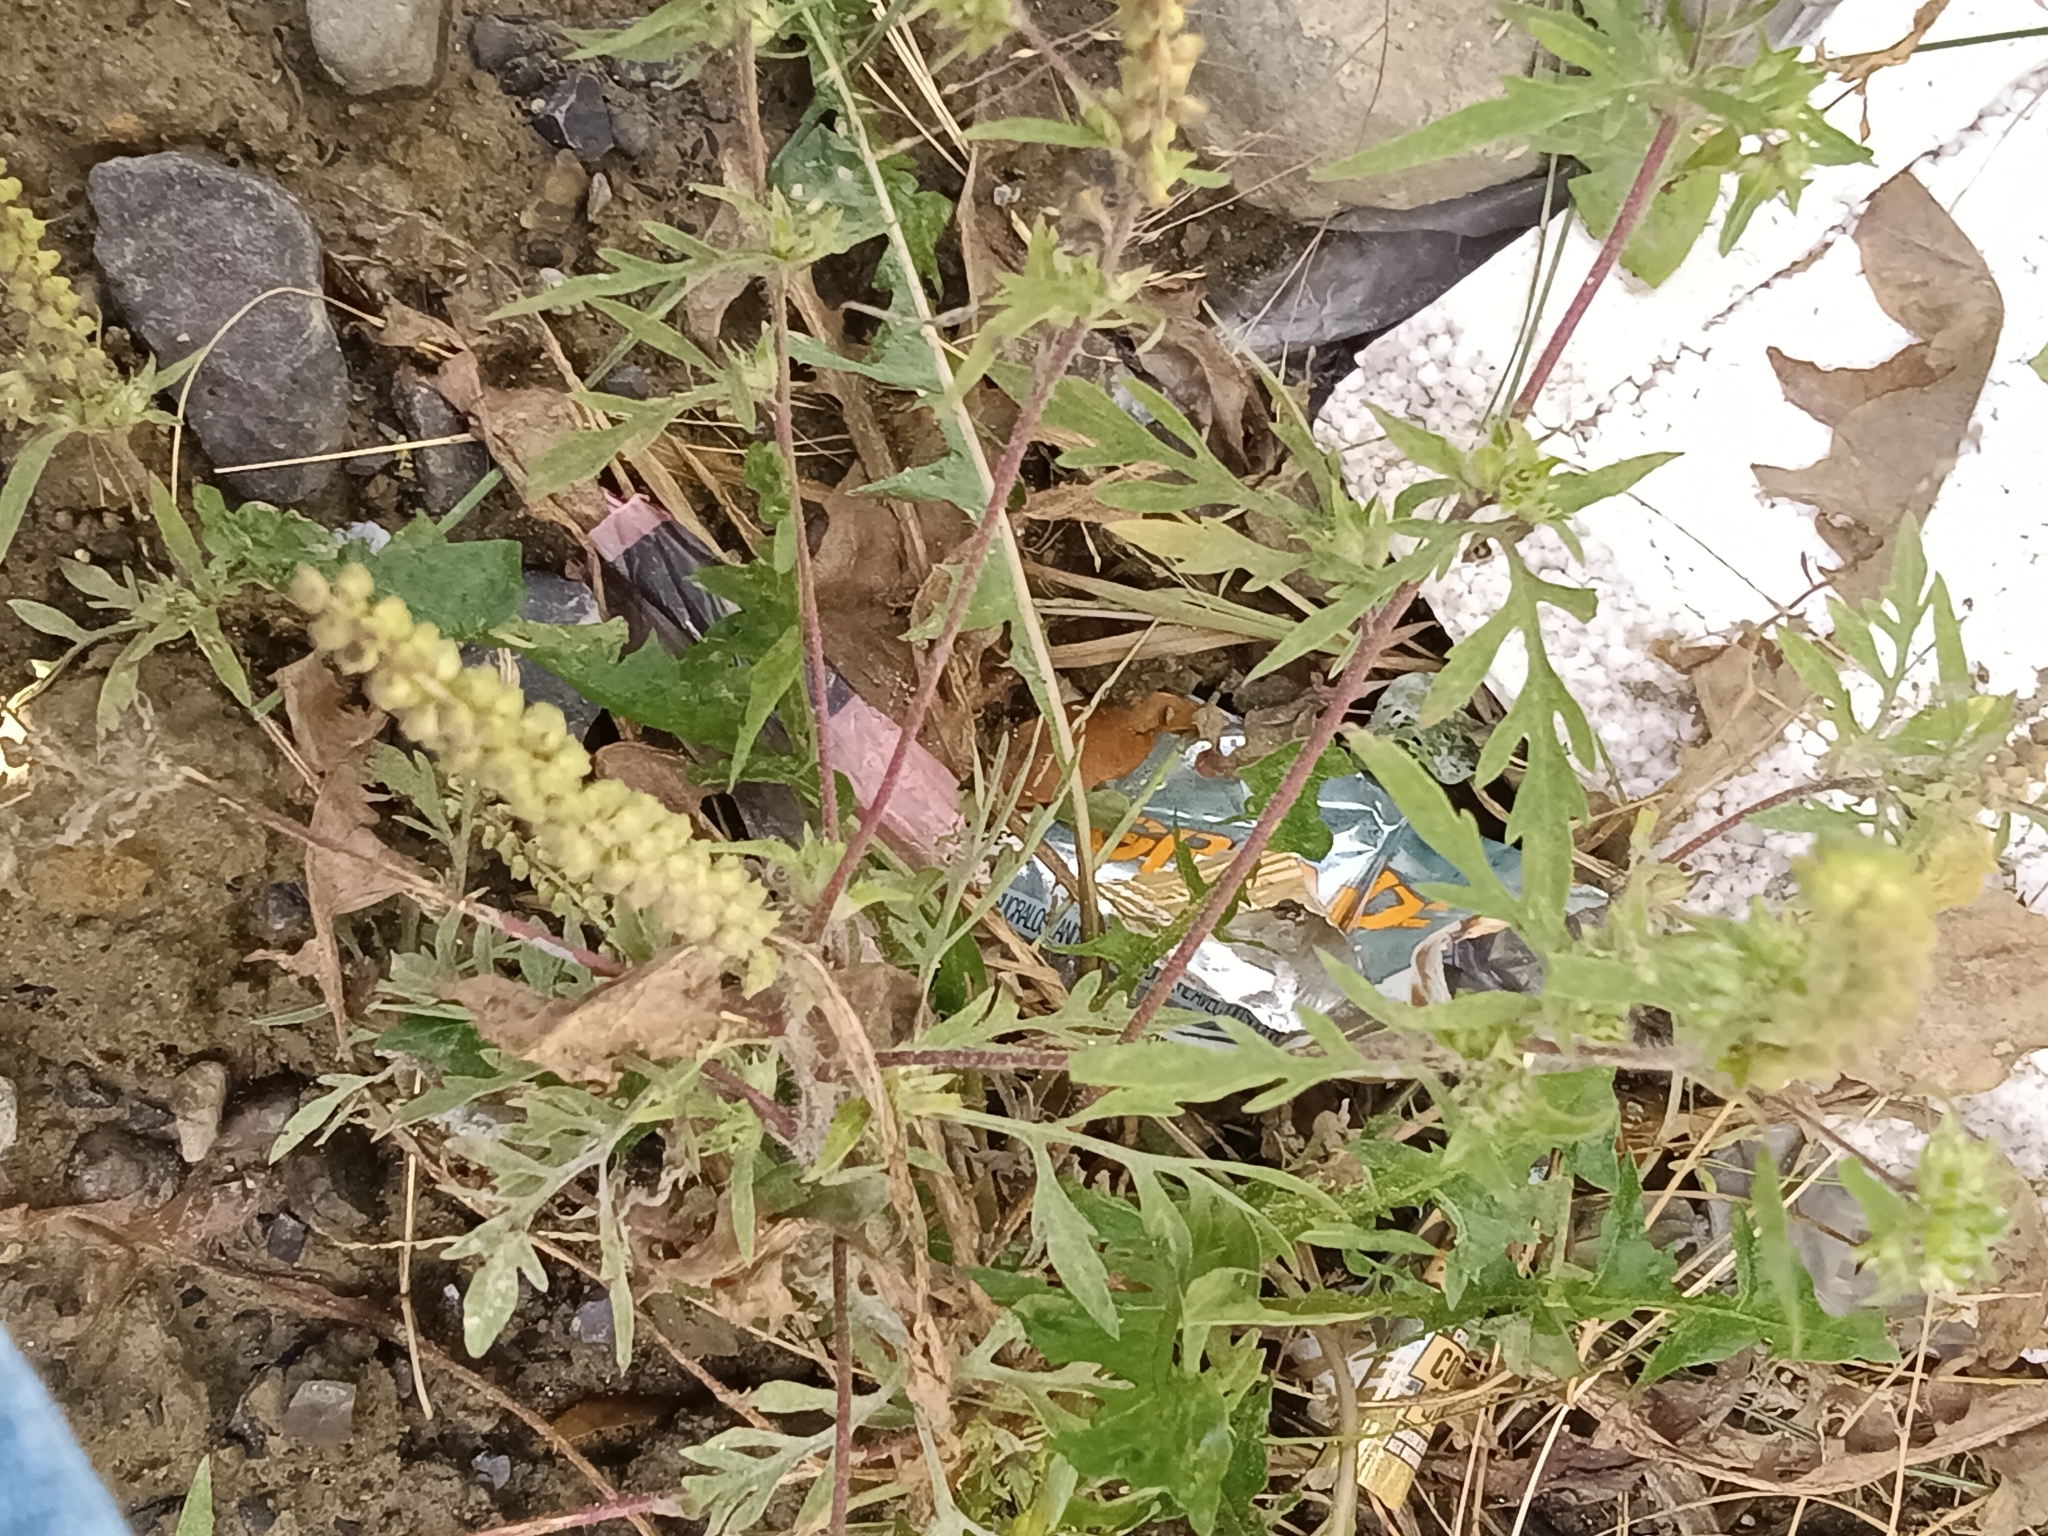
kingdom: Plantae
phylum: Tracheophyta
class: Magnoliopsida
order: Asterales
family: Asteraceae
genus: Ambrosia
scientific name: Ambrosia artemisiifolia
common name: Annual ragweed
